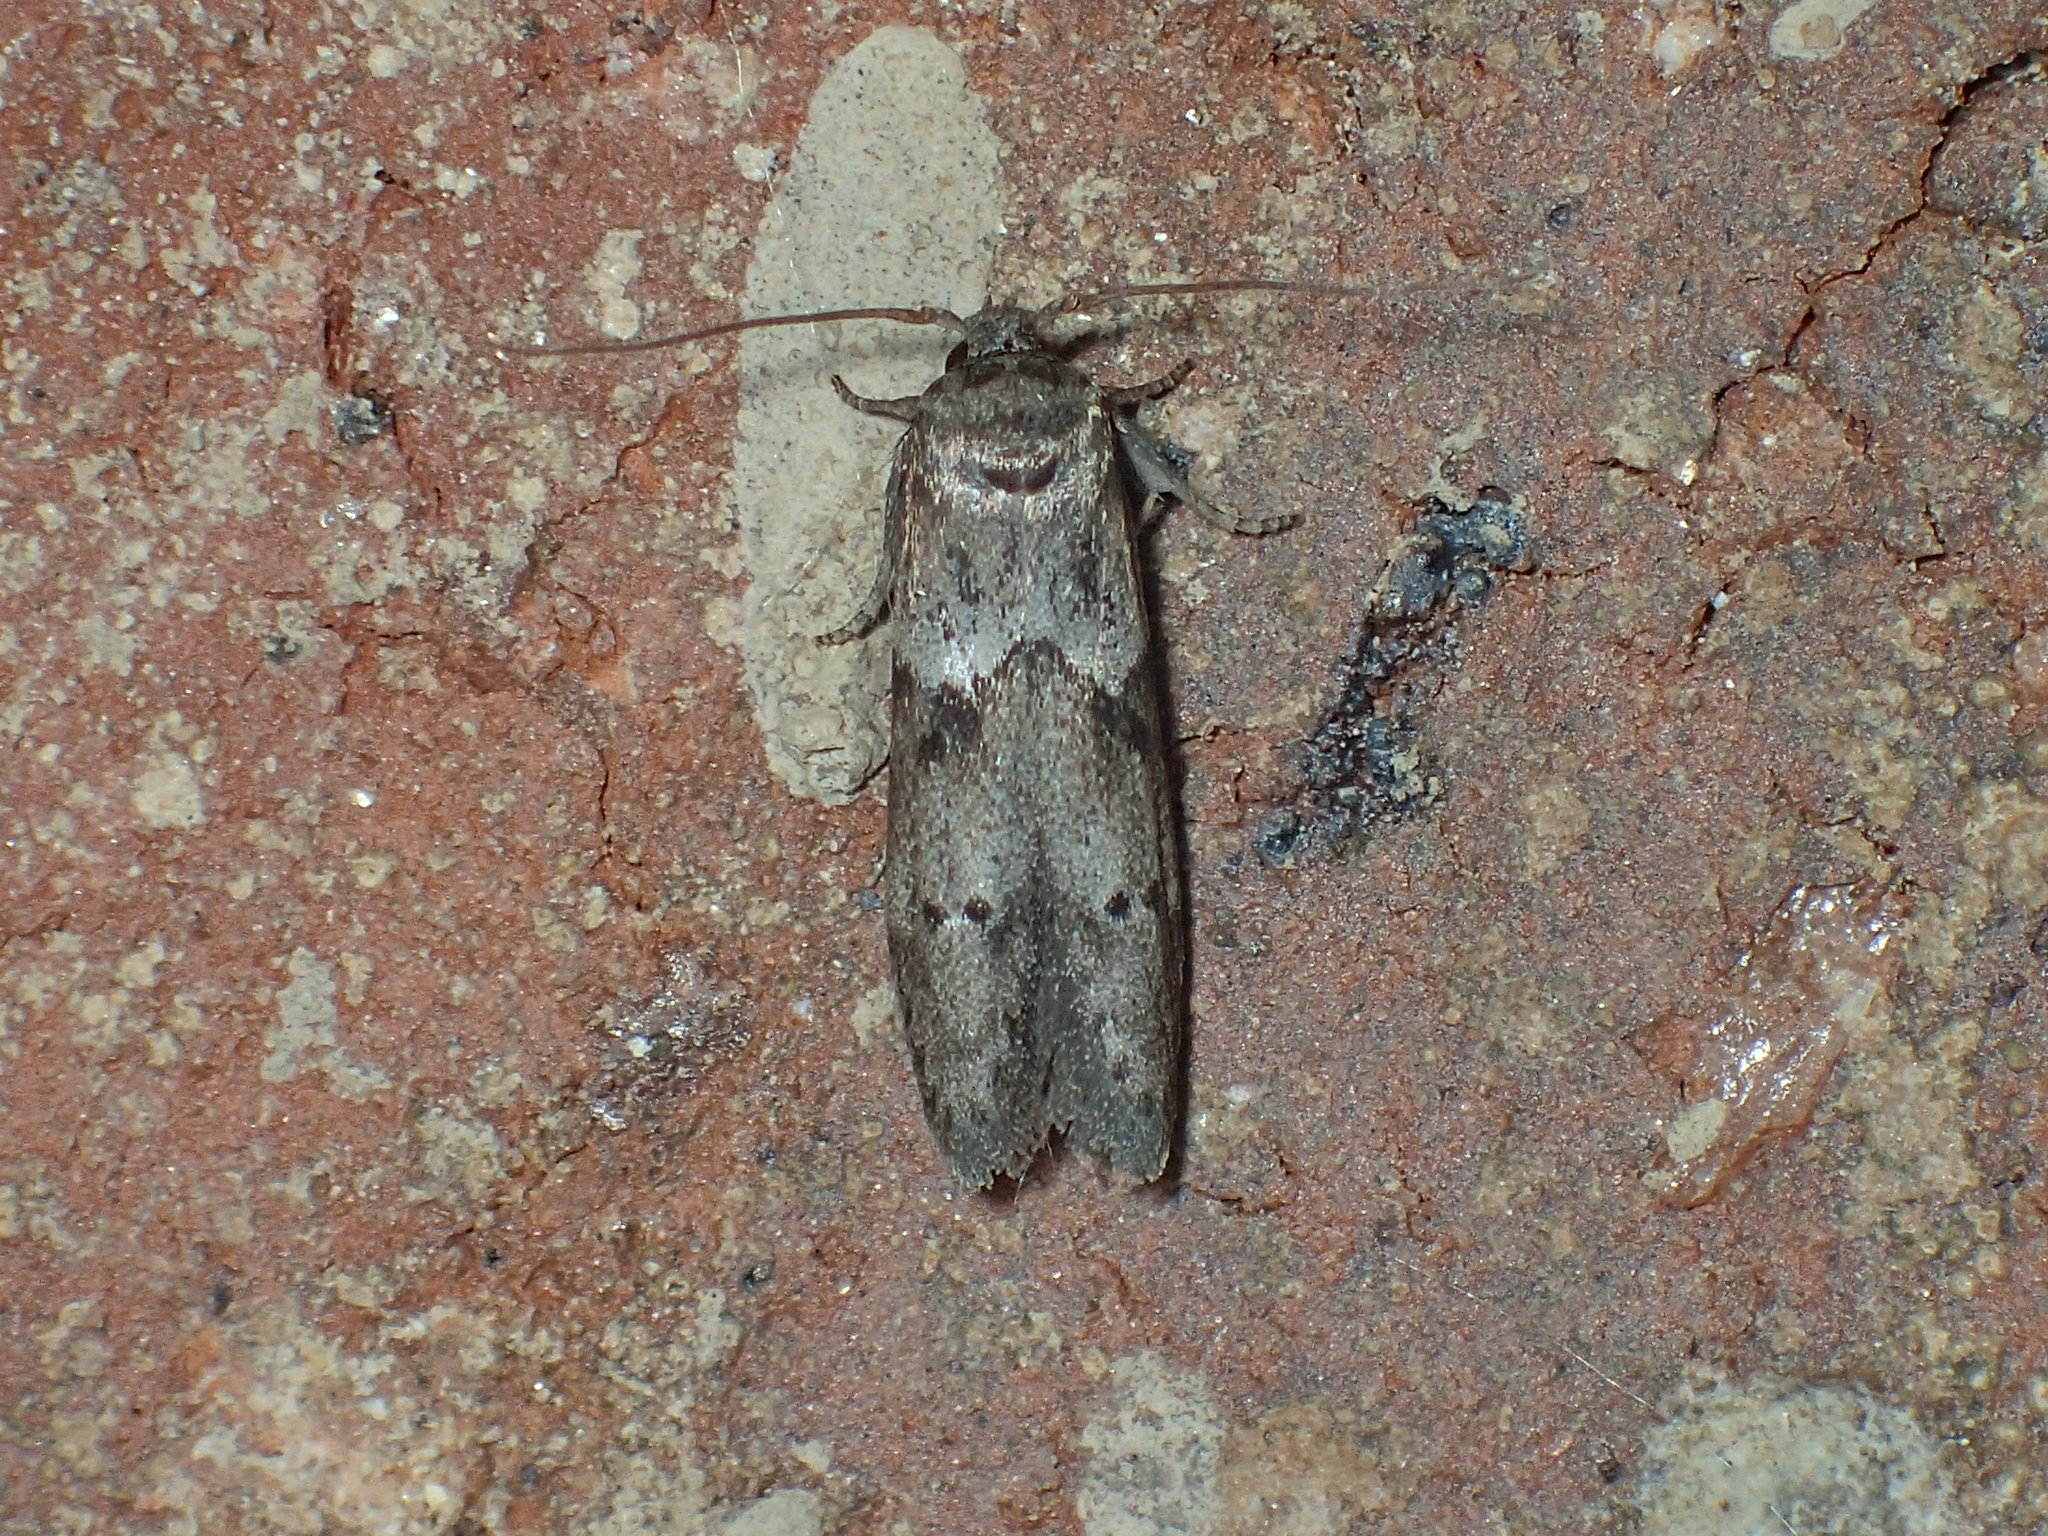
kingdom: Animalia
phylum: Arthropoda
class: Insecta
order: Lepidoptera
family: Blastobasidae
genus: Blastobasis
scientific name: Blastobasis glandulella
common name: Acorn moth
